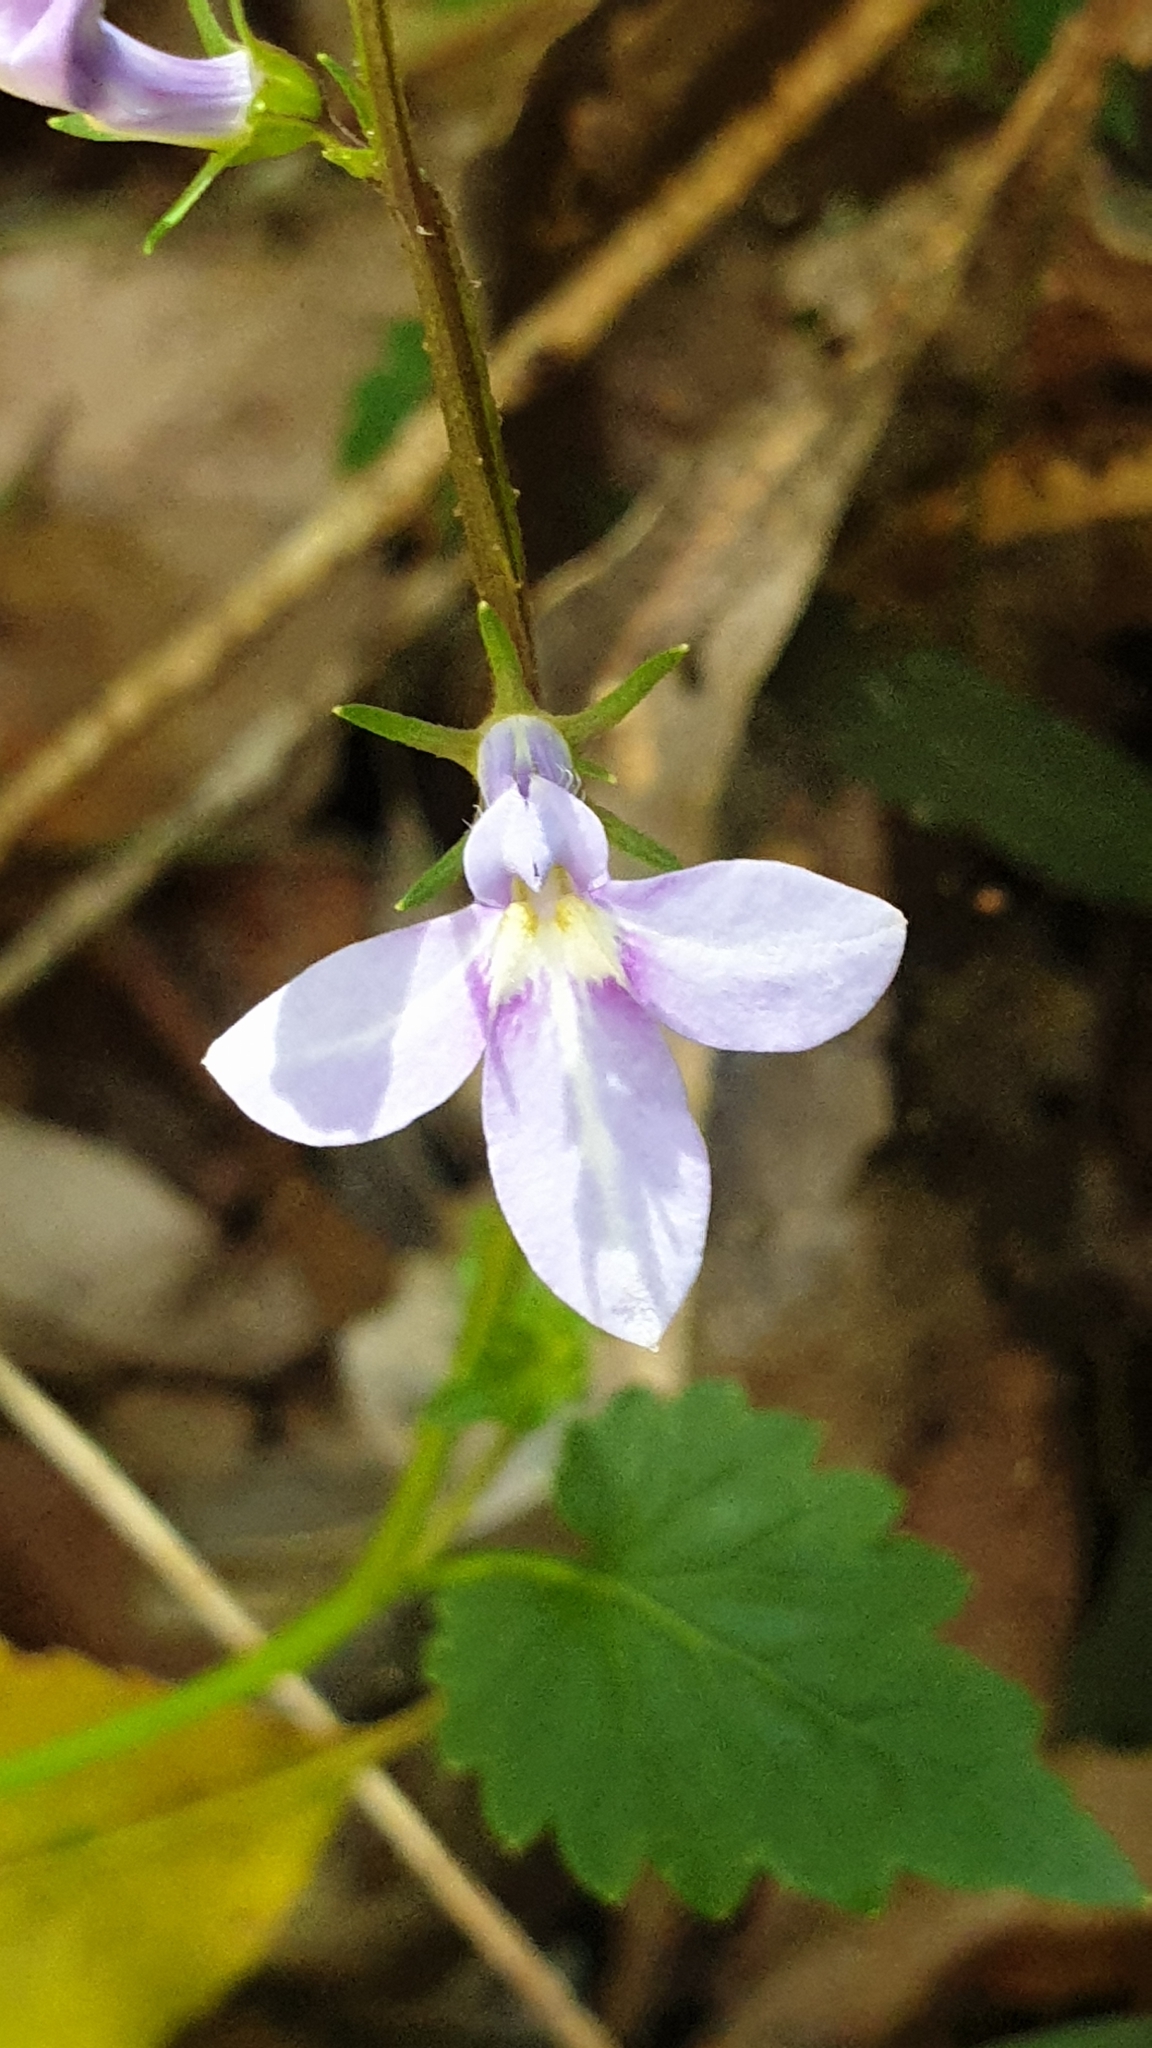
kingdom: Plantae
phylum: Tracheophyta
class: Magnoliopsida
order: Asterales
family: Campanulaceae
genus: Lobelia
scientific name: Lobelia trigonocaulis
